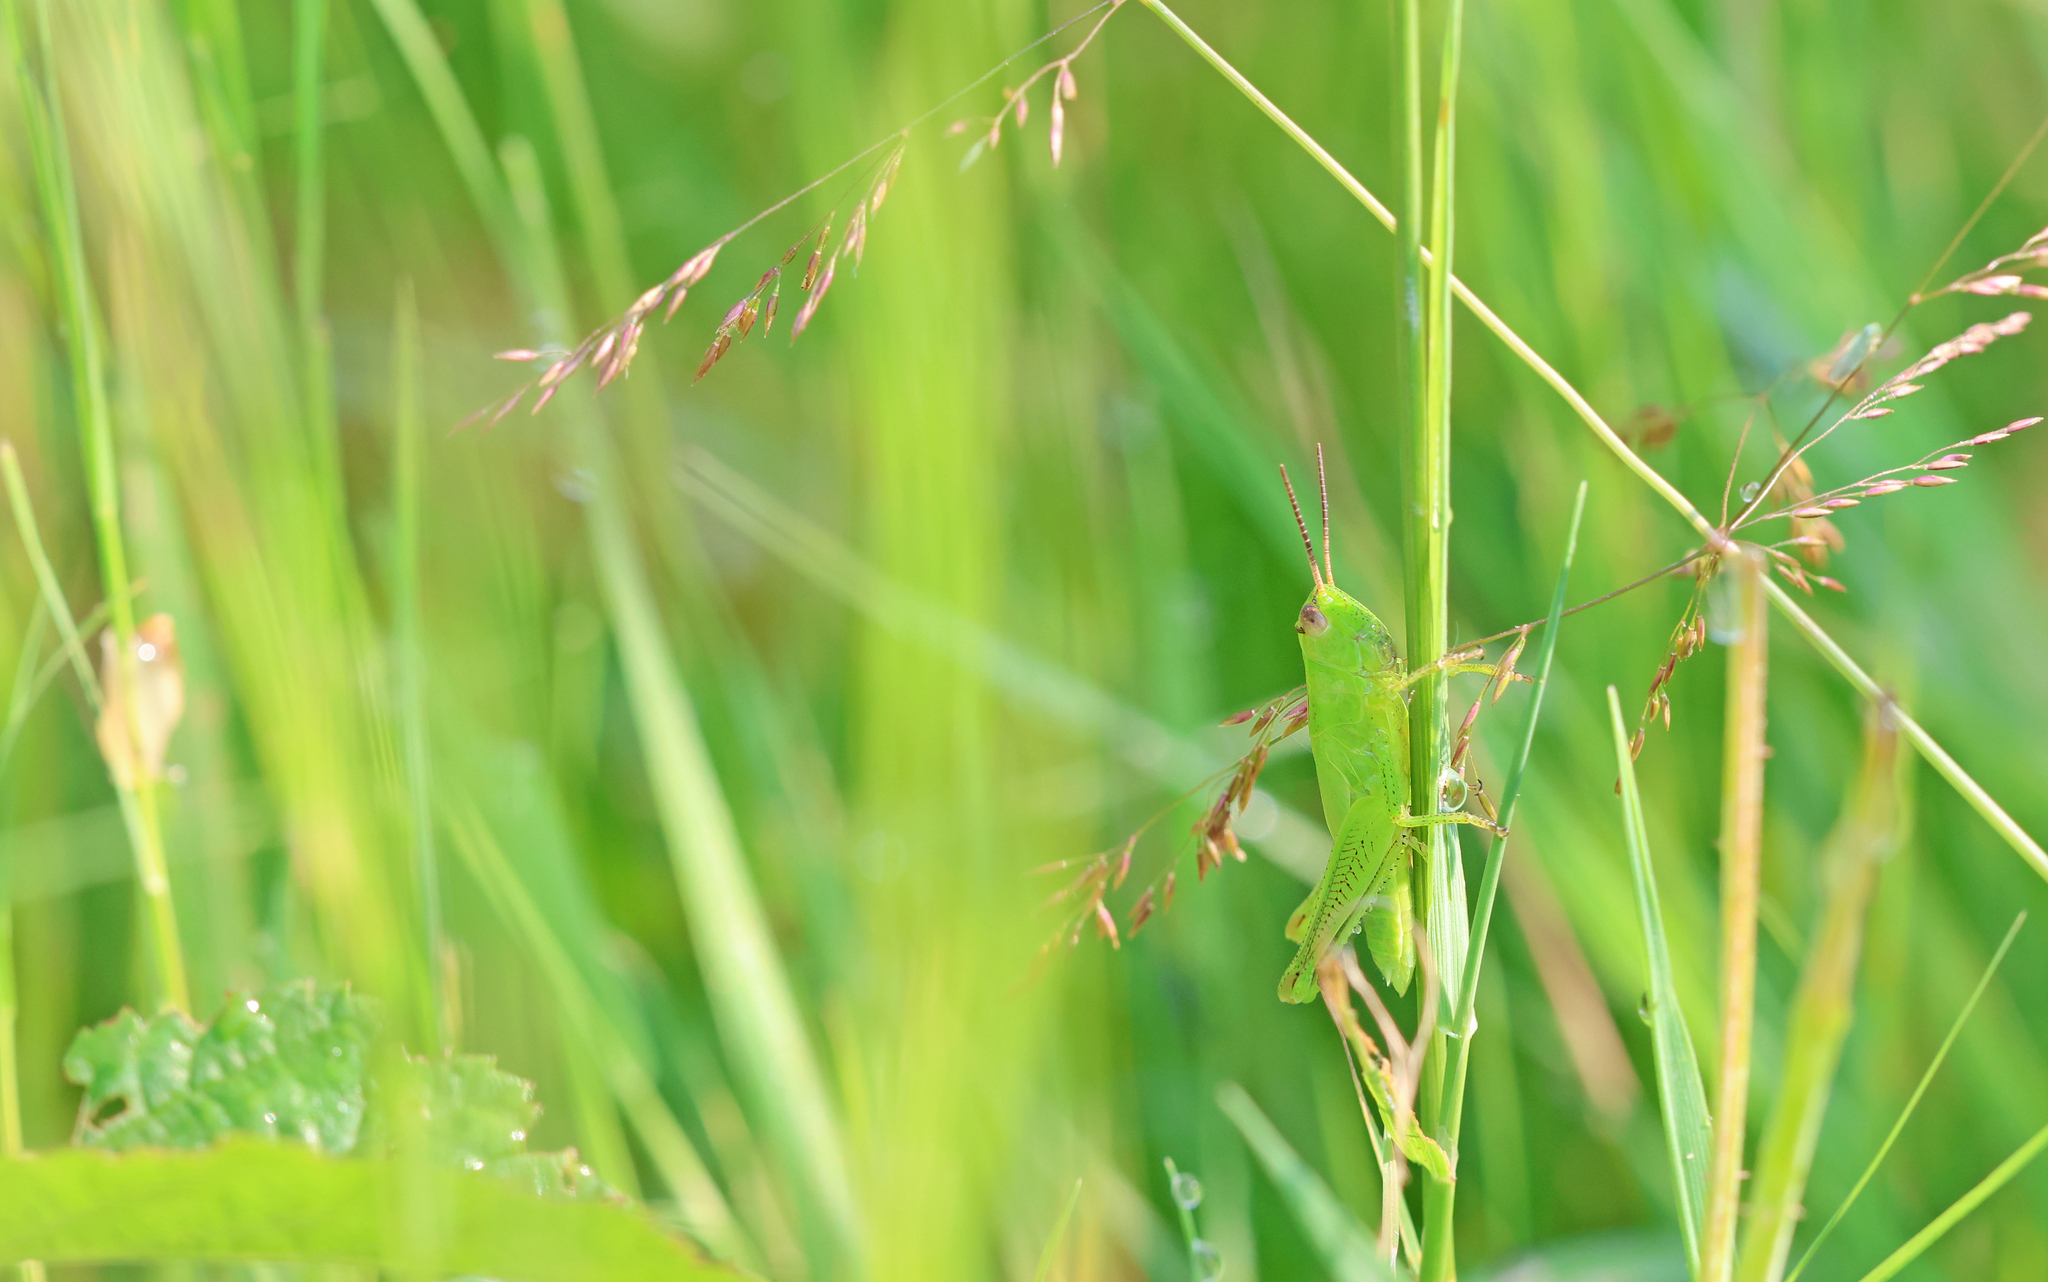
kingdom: Animalia
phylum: Arthropoda
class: Insecta
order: Orthoptera
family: Acrididae
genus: Mecostethus
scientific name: Mecostethus parapleurus
